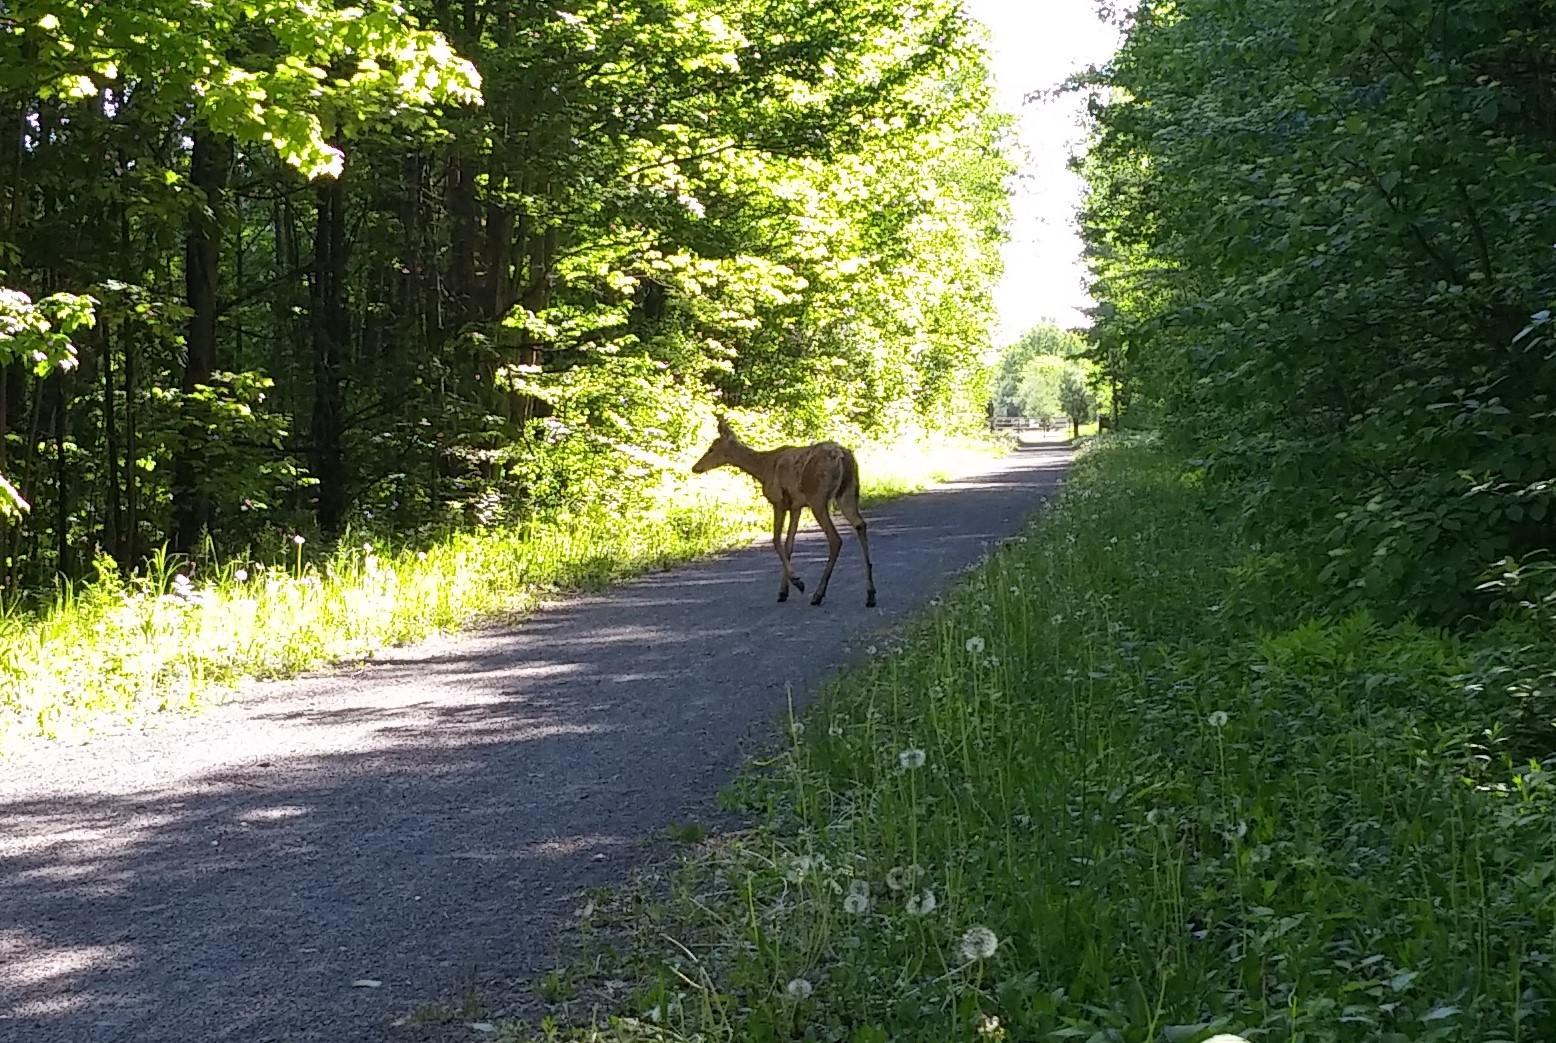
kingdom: Animalia
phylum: Chordata
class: Mammalia
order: Artiodactyla
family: Cervidae
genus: Odocoileus
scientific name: Odocoileus virginianus
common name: White-tailed deer
